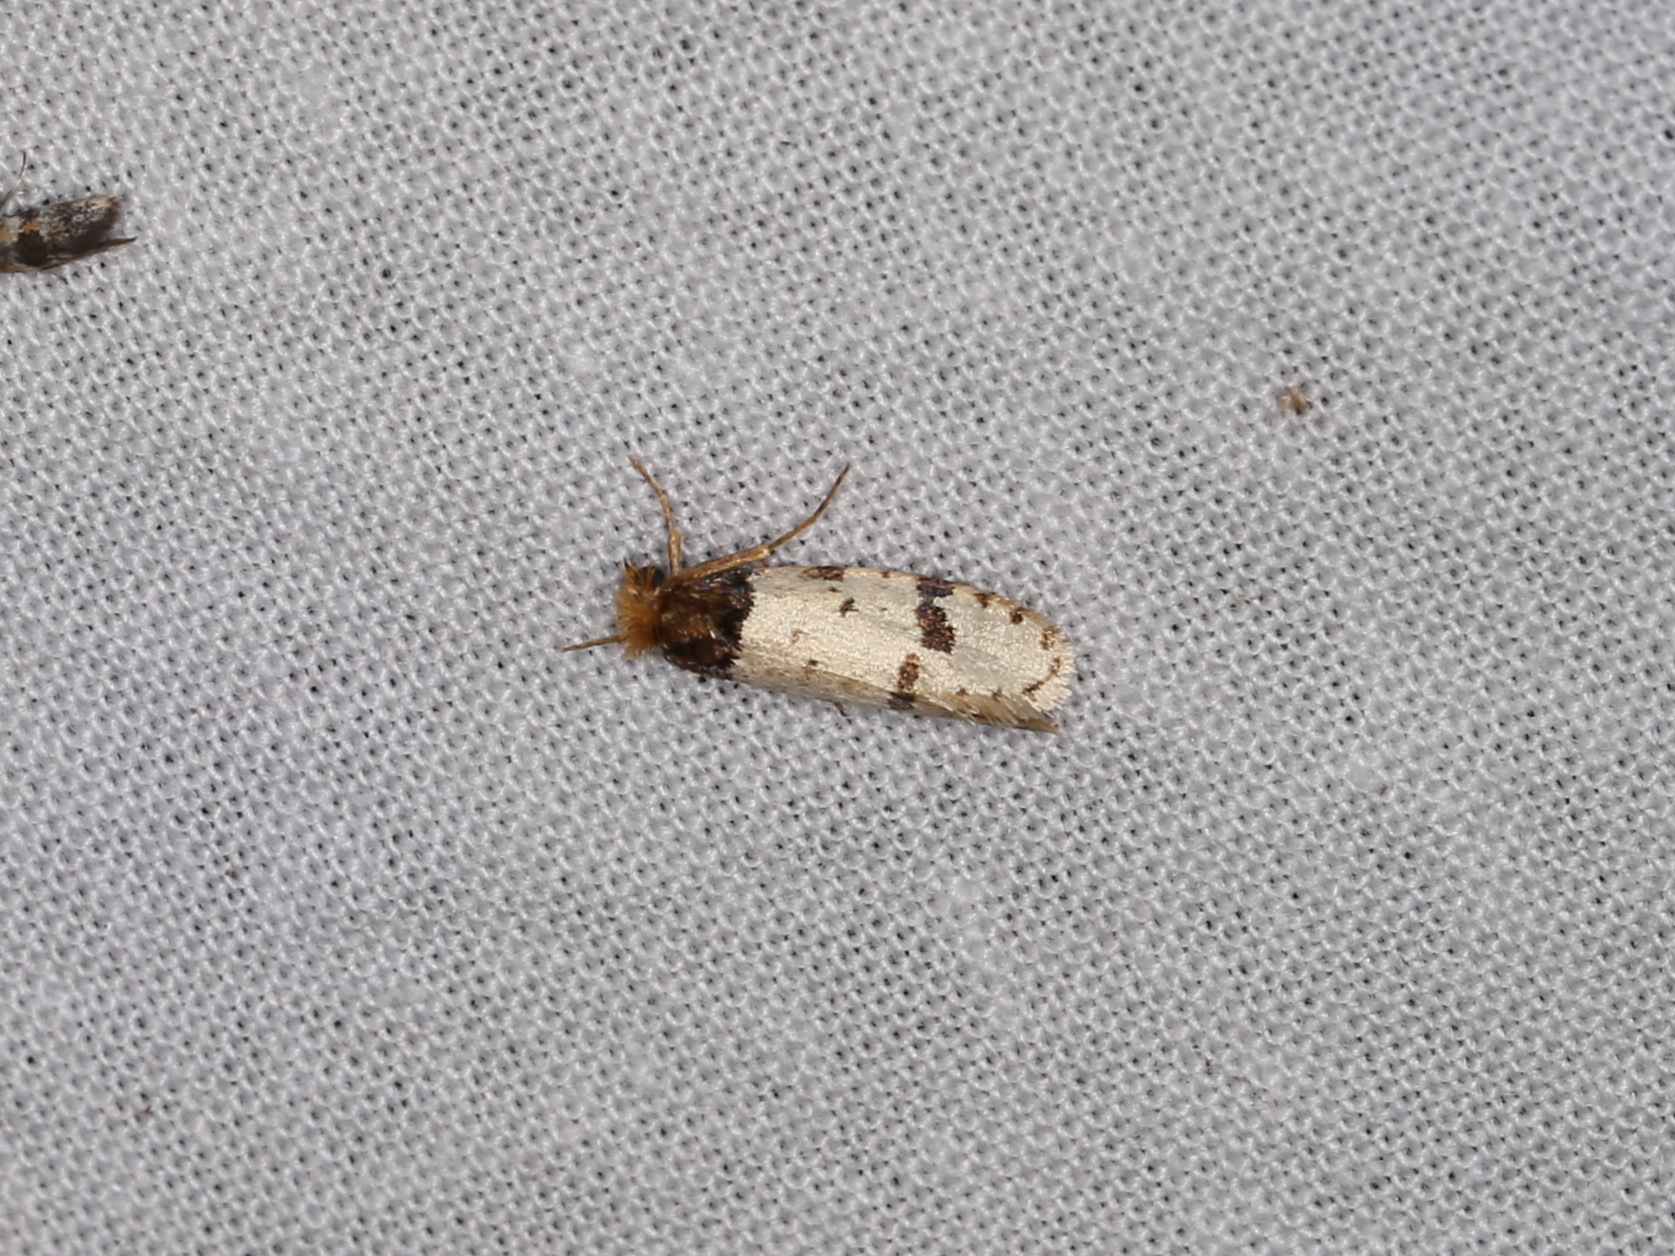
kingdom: Animalia
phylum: Arthropoda
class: Insecta
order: Lepidoptera
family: Psychidae
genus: Iphierga
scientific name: Iphierga macarista
